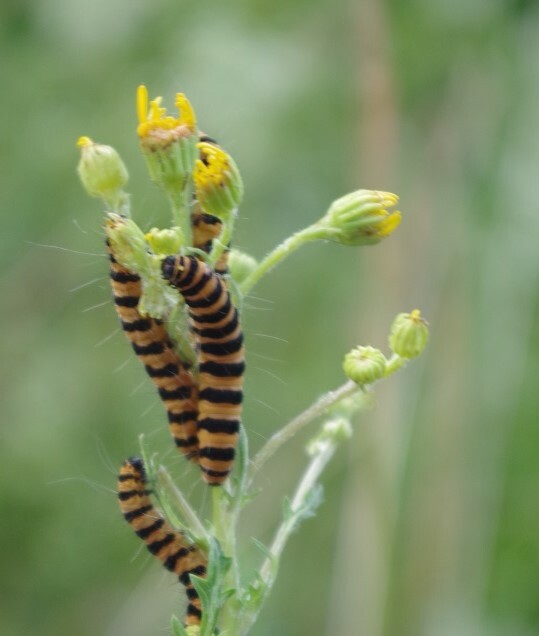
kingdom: Animalia
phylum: Arthropoda
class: Insecta
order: Lepidoptera
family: Erebidae
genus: Tyria
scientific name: Tyria jacobaeae
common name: Cinnabar
